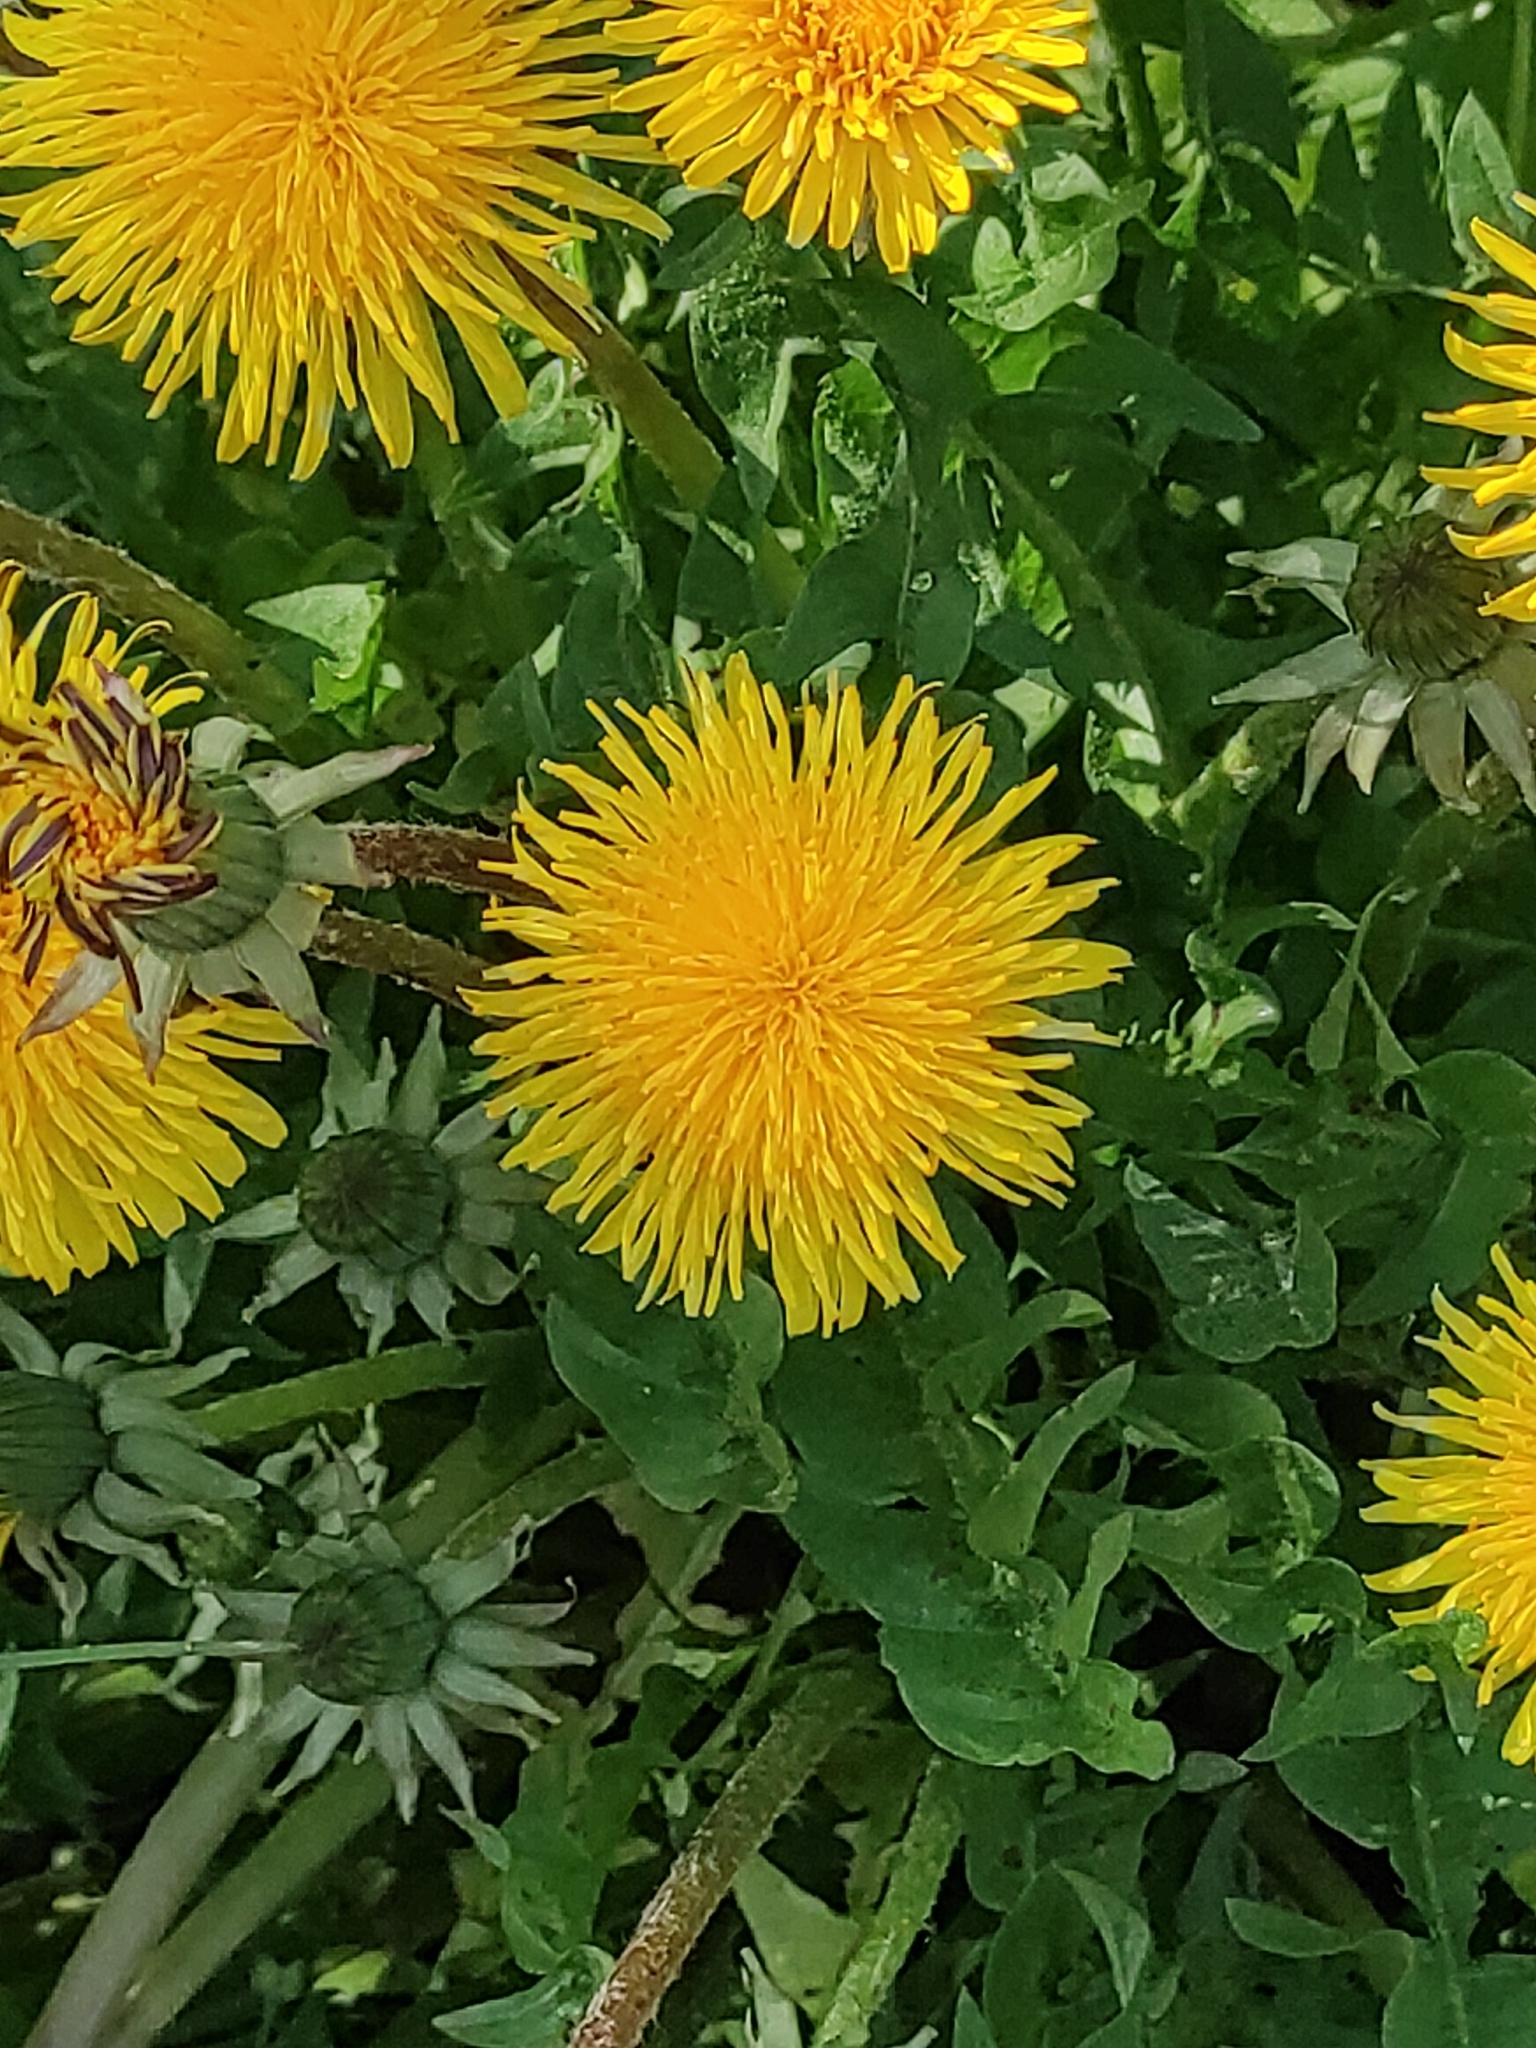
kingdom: Plantae
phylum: Tracheophyta
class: Magnoliopsida
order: Asterales
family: Asteraceae
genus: Taraxacum
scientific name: Taraxacum officinale
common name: Common dandelion
